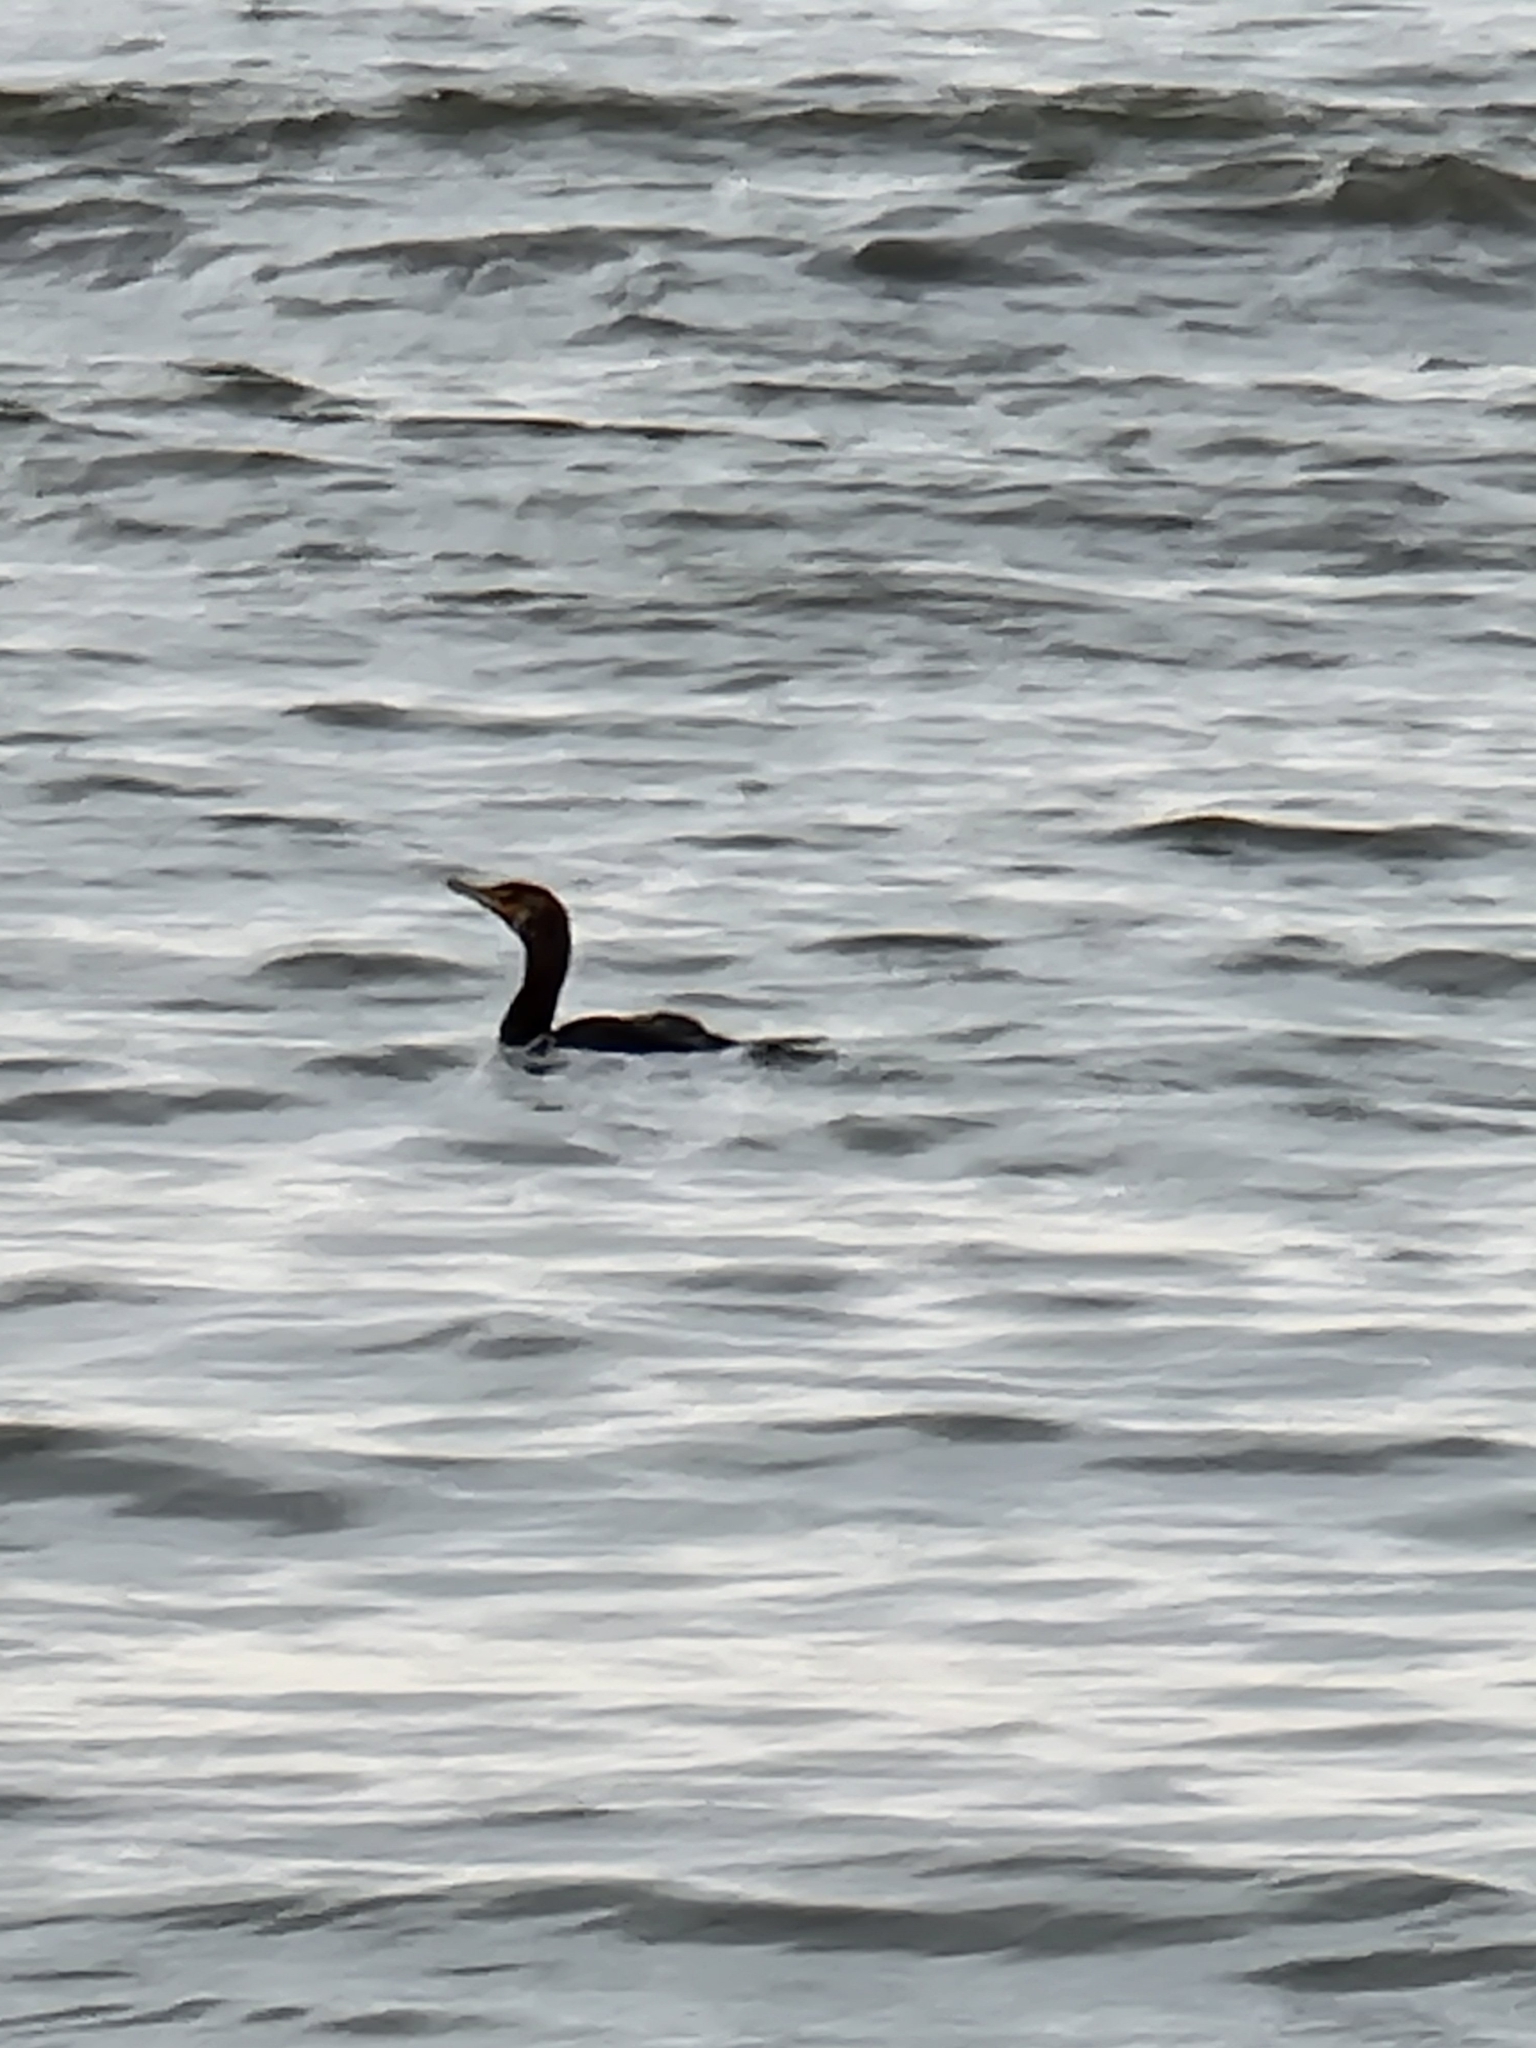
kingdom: Animalia
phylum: Chordata
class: Aves
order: Suliformes
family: Phalacrocoracidae
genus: Phalacrocorax
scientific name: Phalacrocorax auritus
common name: Double-crested cormorant
